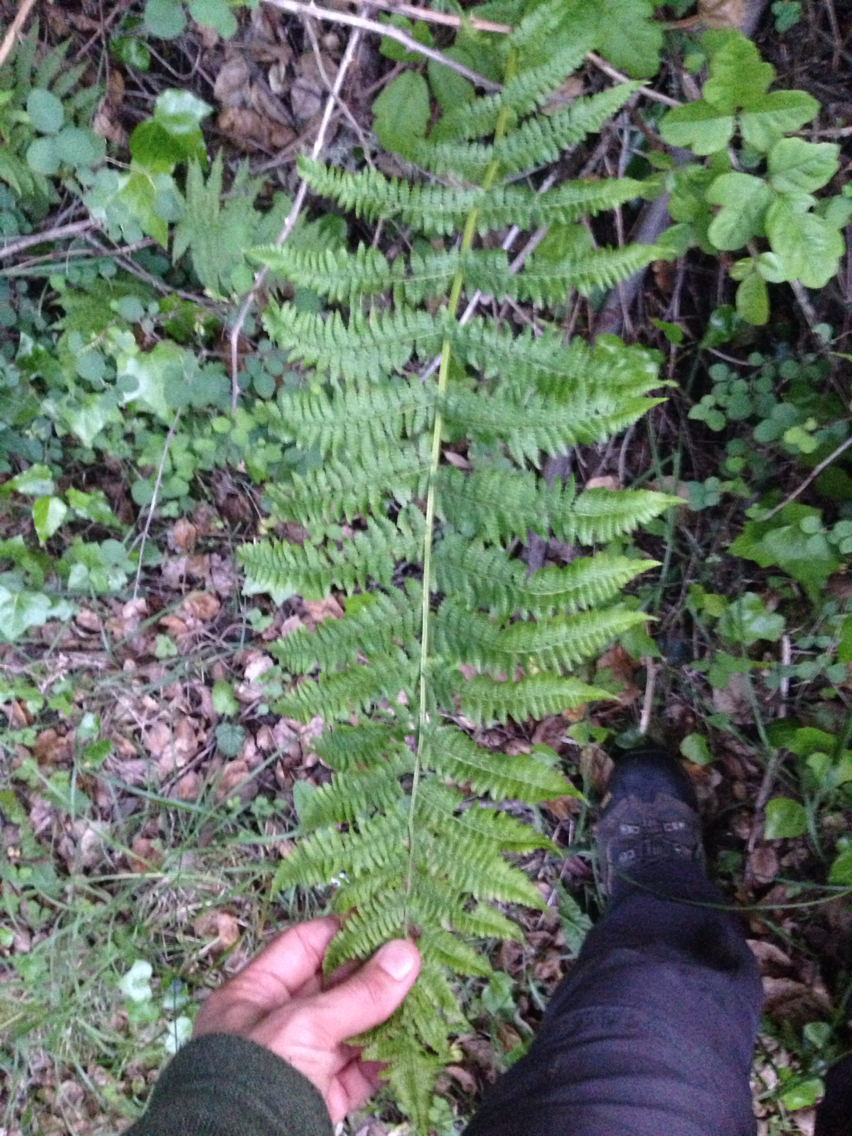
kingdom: Plantae
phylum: Tracheophyta
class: Polypodiopsida
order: Polypodiales
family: Athyriaceae
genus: Athyrium
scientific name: Athyrium filix-femina
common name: Lady fern
